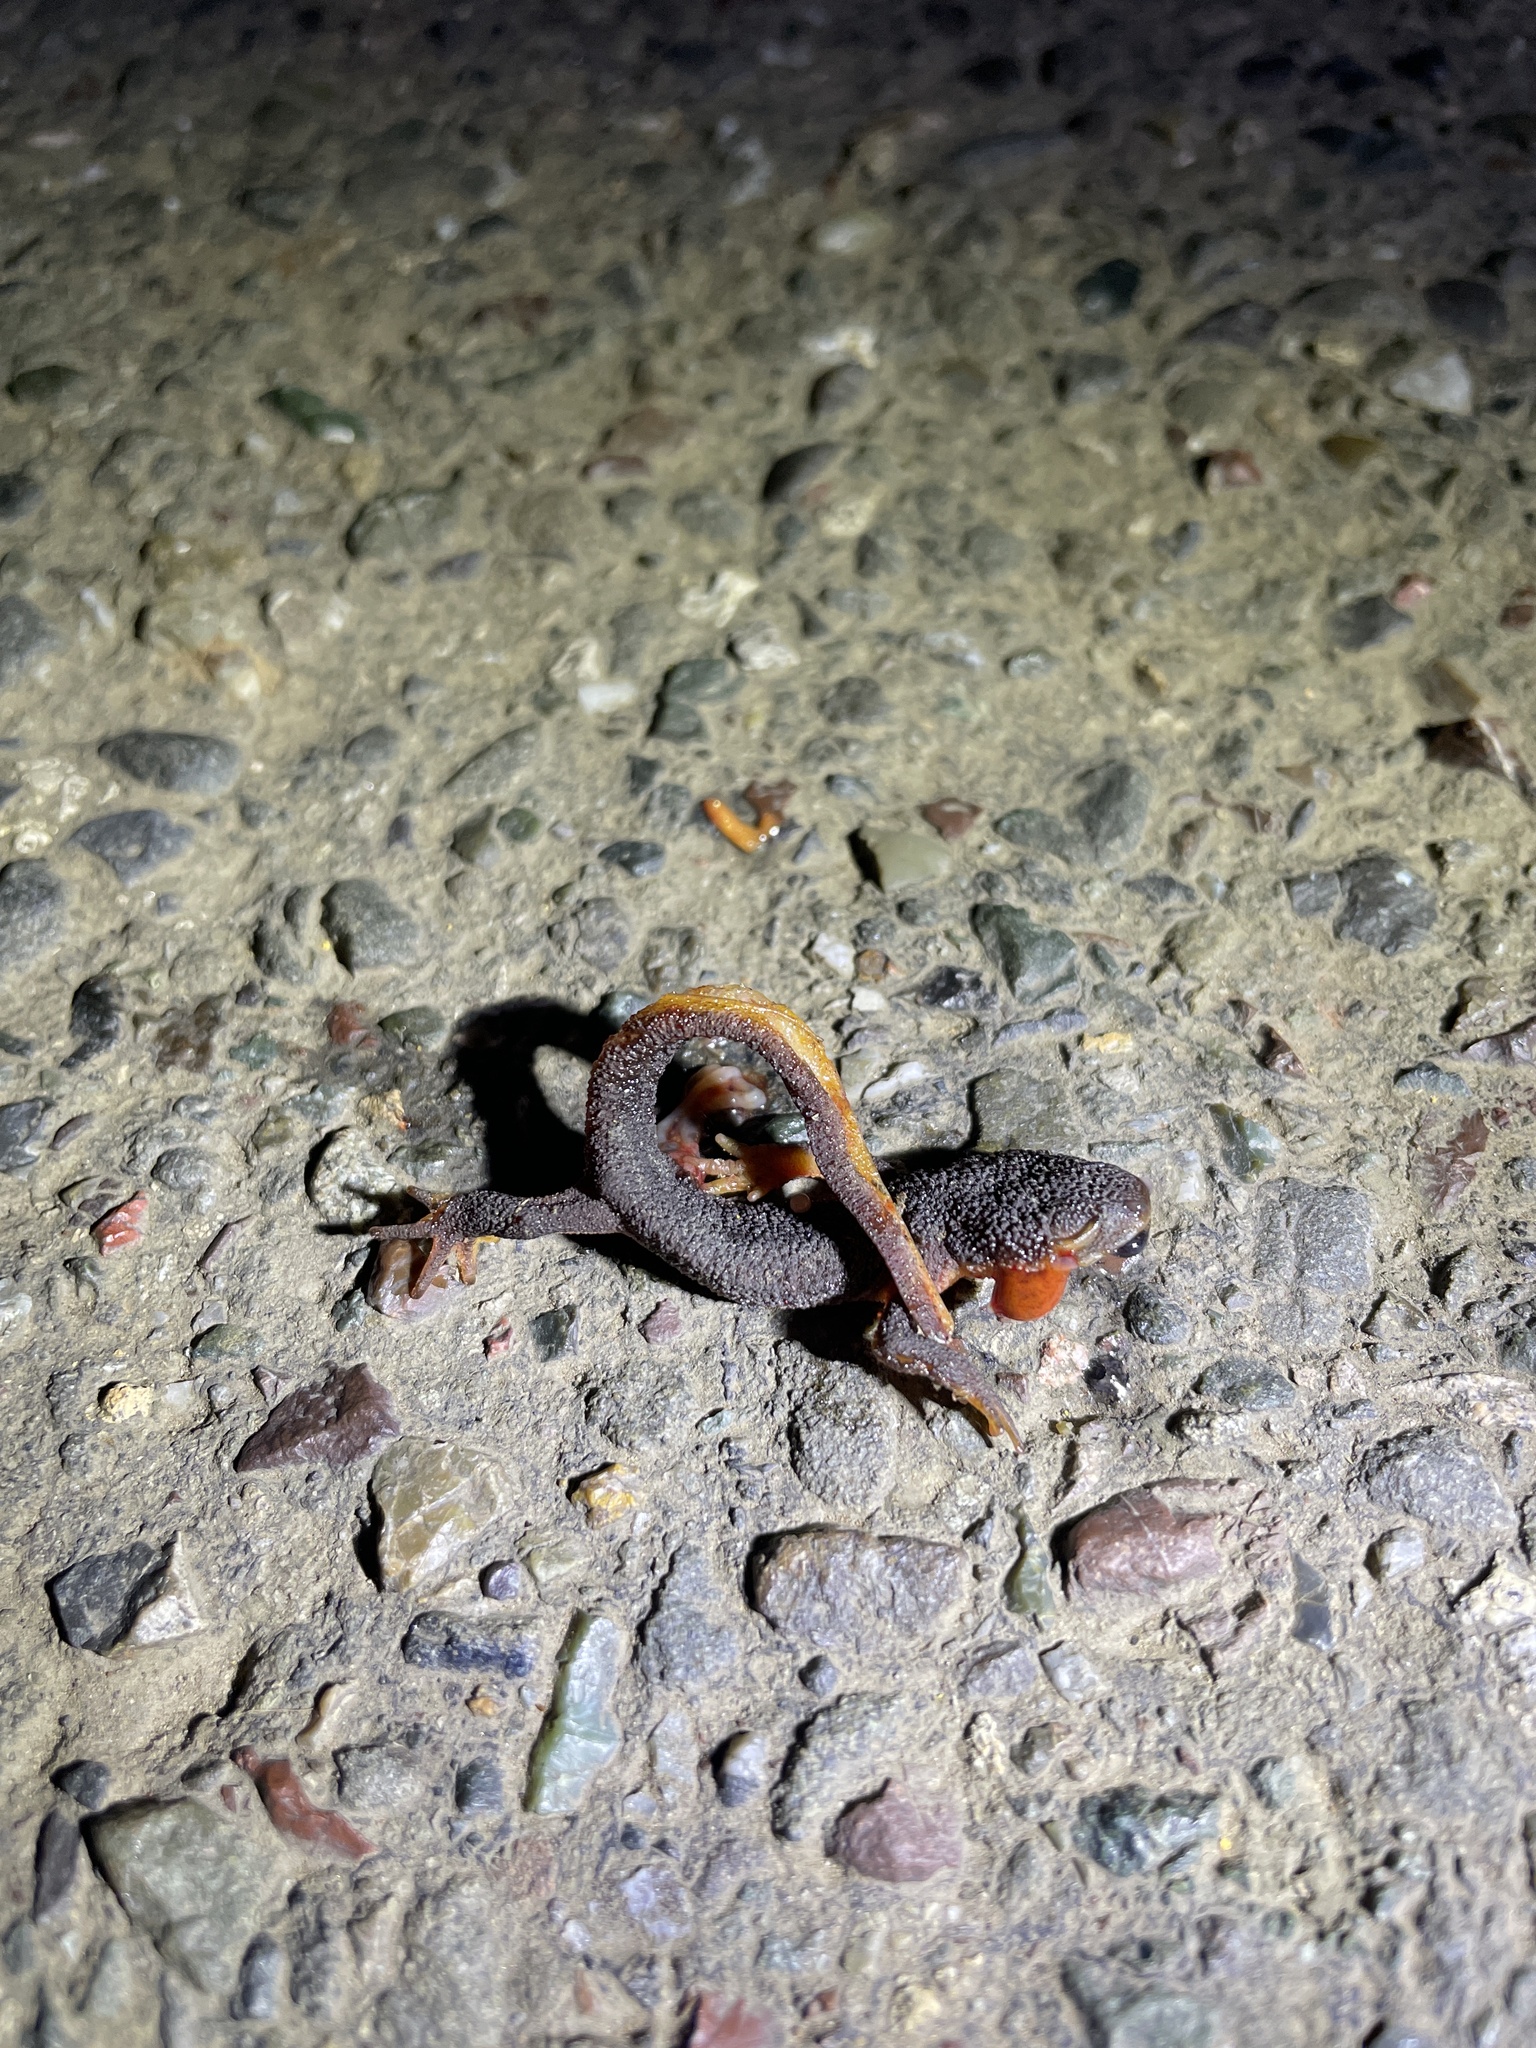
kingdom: Animalia
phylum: Chordata
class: Amphibia
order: Caudata
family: Salamandridae
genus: Taricha
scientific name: Taricha
